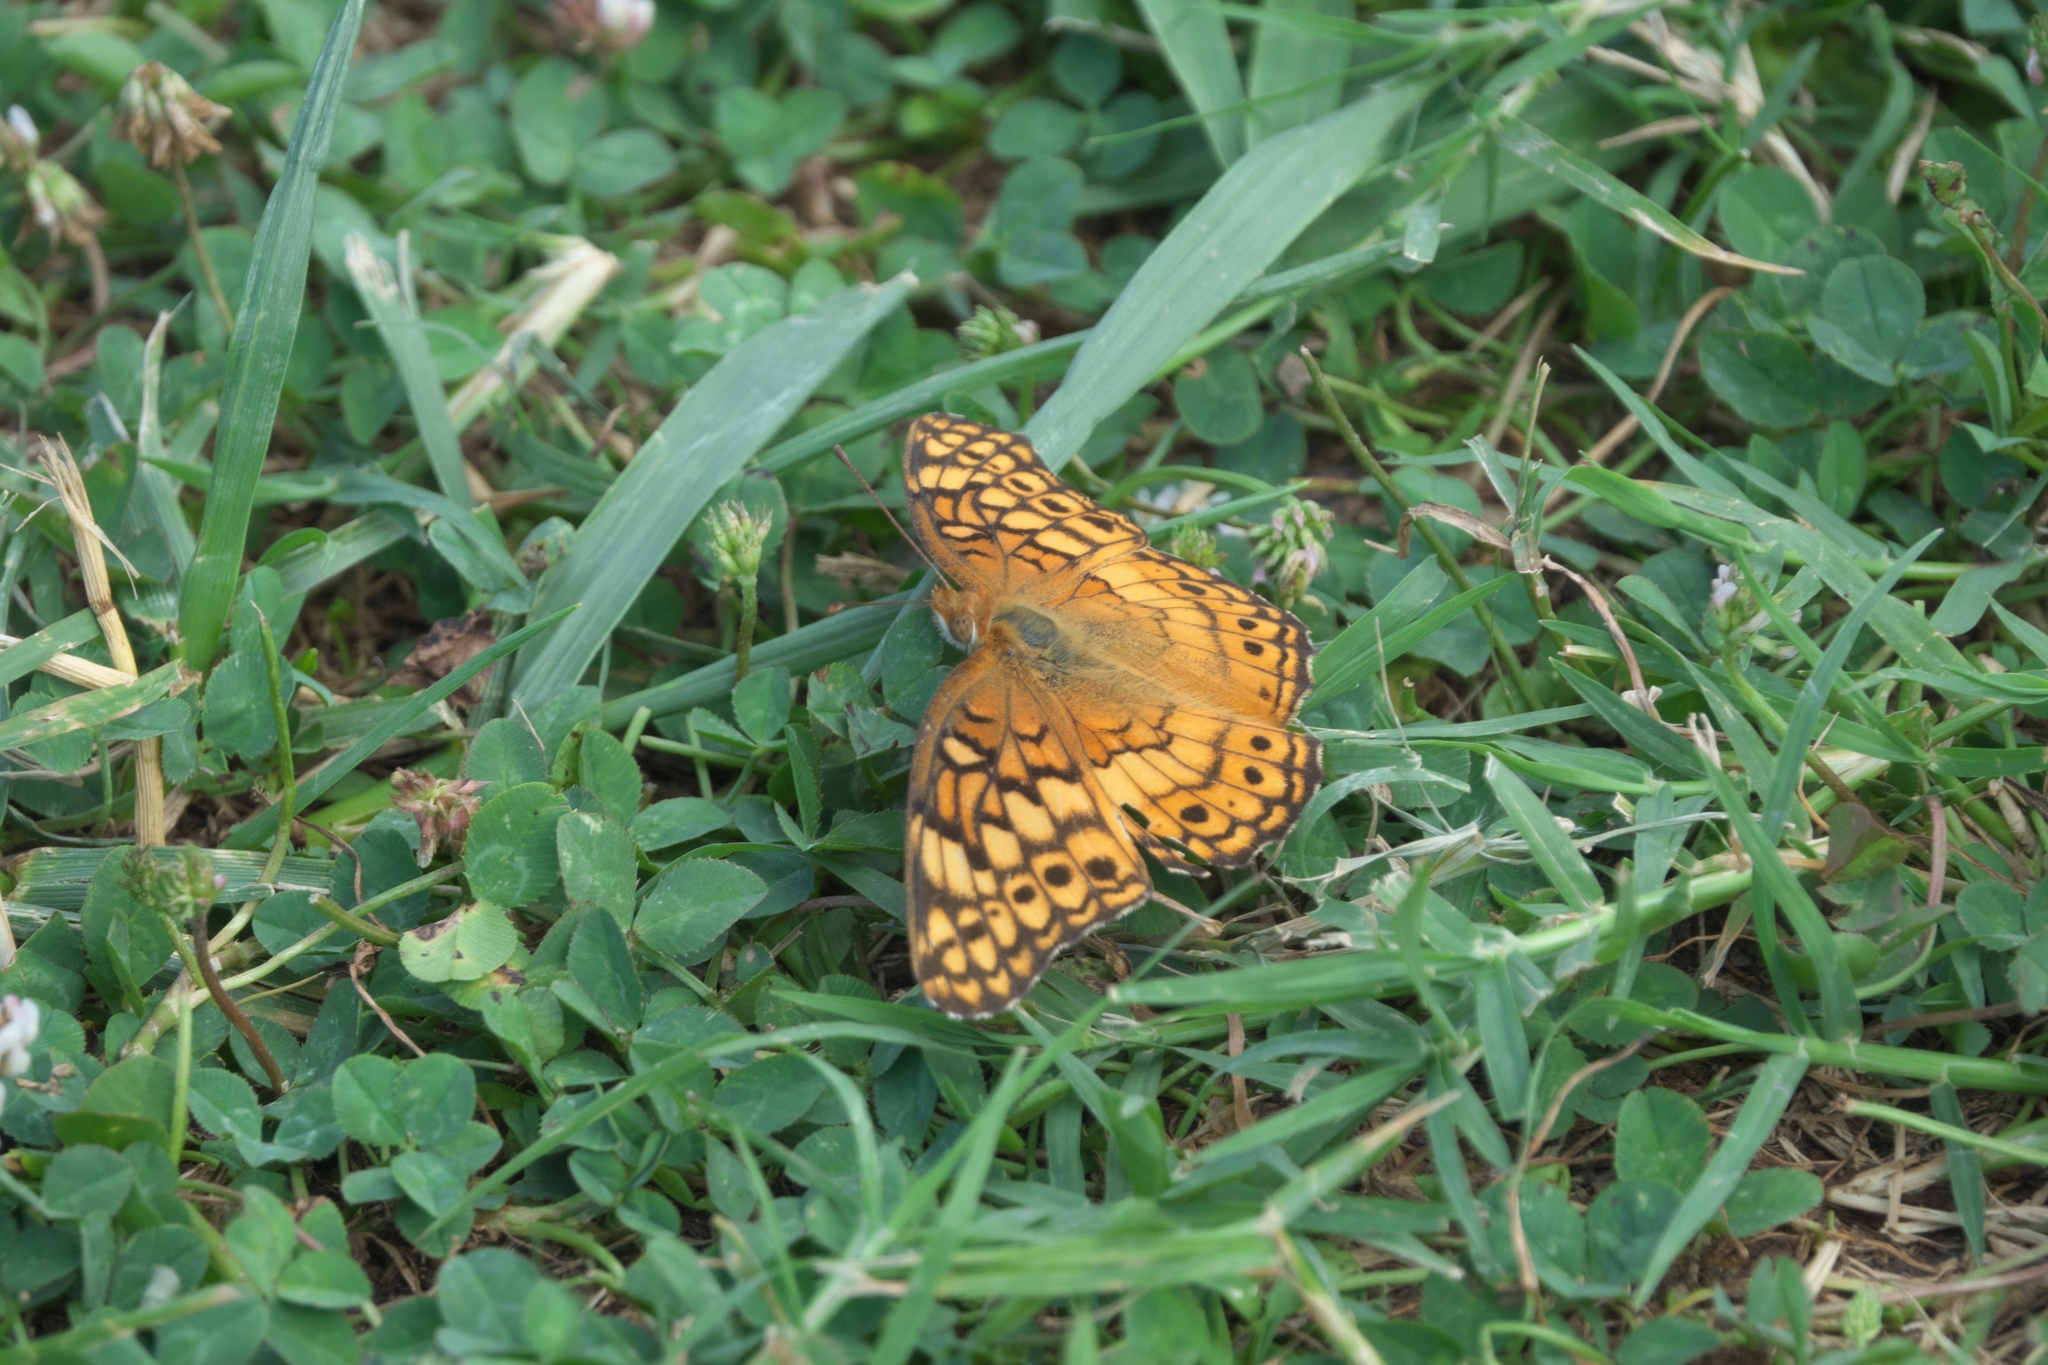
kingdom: Animalia
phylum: Arthropoda
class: Insecta
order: Lepidoptera
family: Nymphalidae
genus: Euptoieta
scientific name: Euptoieta claudia
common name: Variegated fritillary
